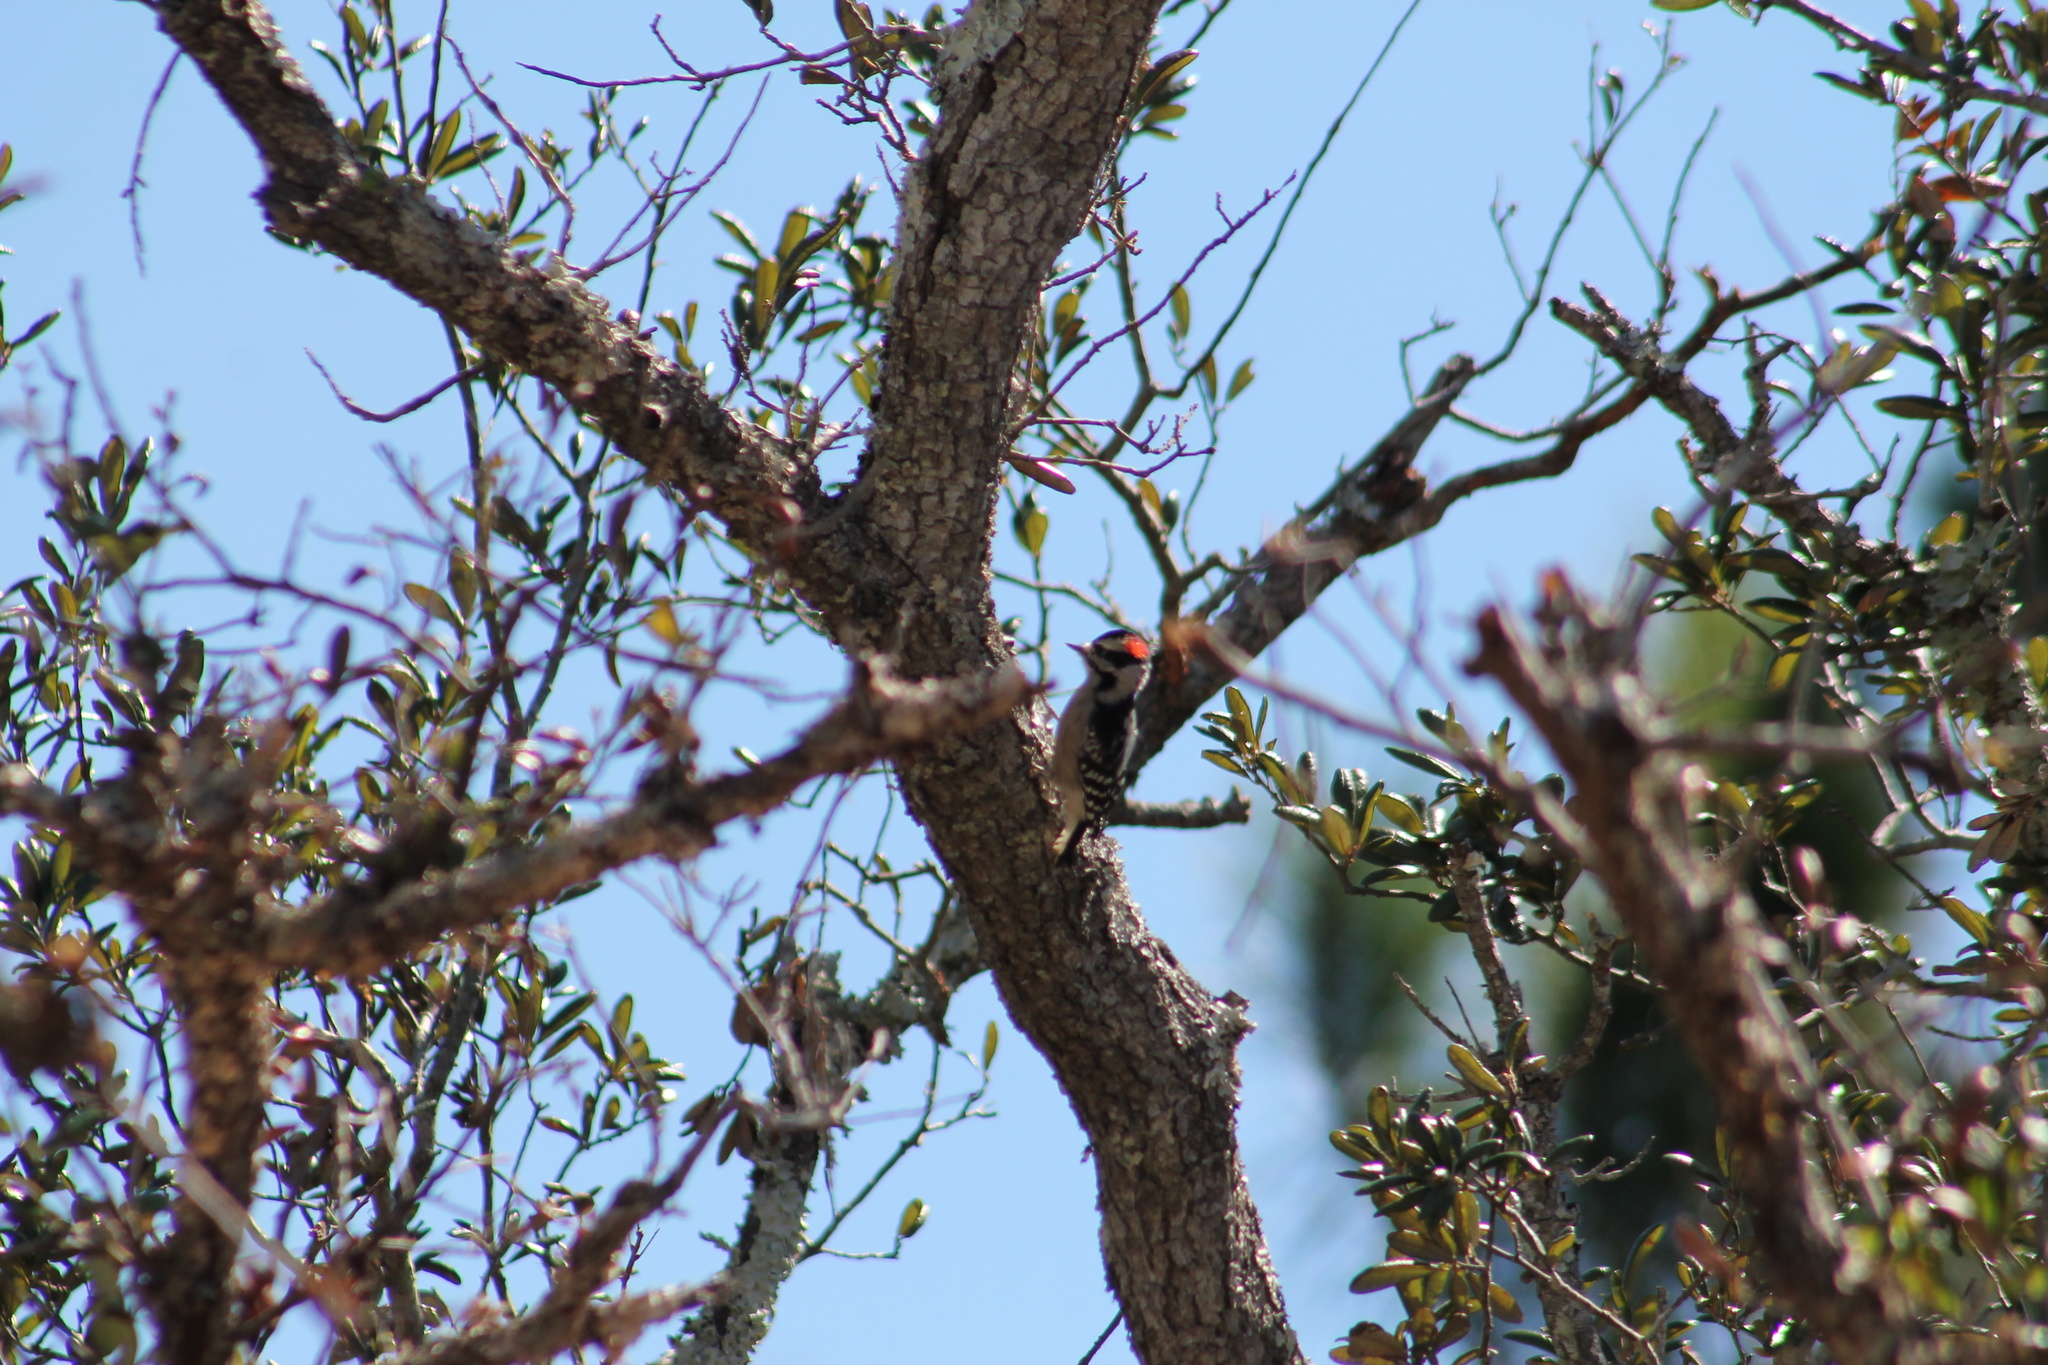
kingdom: Animalia
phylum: Chordata
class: Aves
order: Piciformes
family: Picidae
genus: Dryobates
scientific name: Dryobates pubescens
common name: Downy woodpecker
